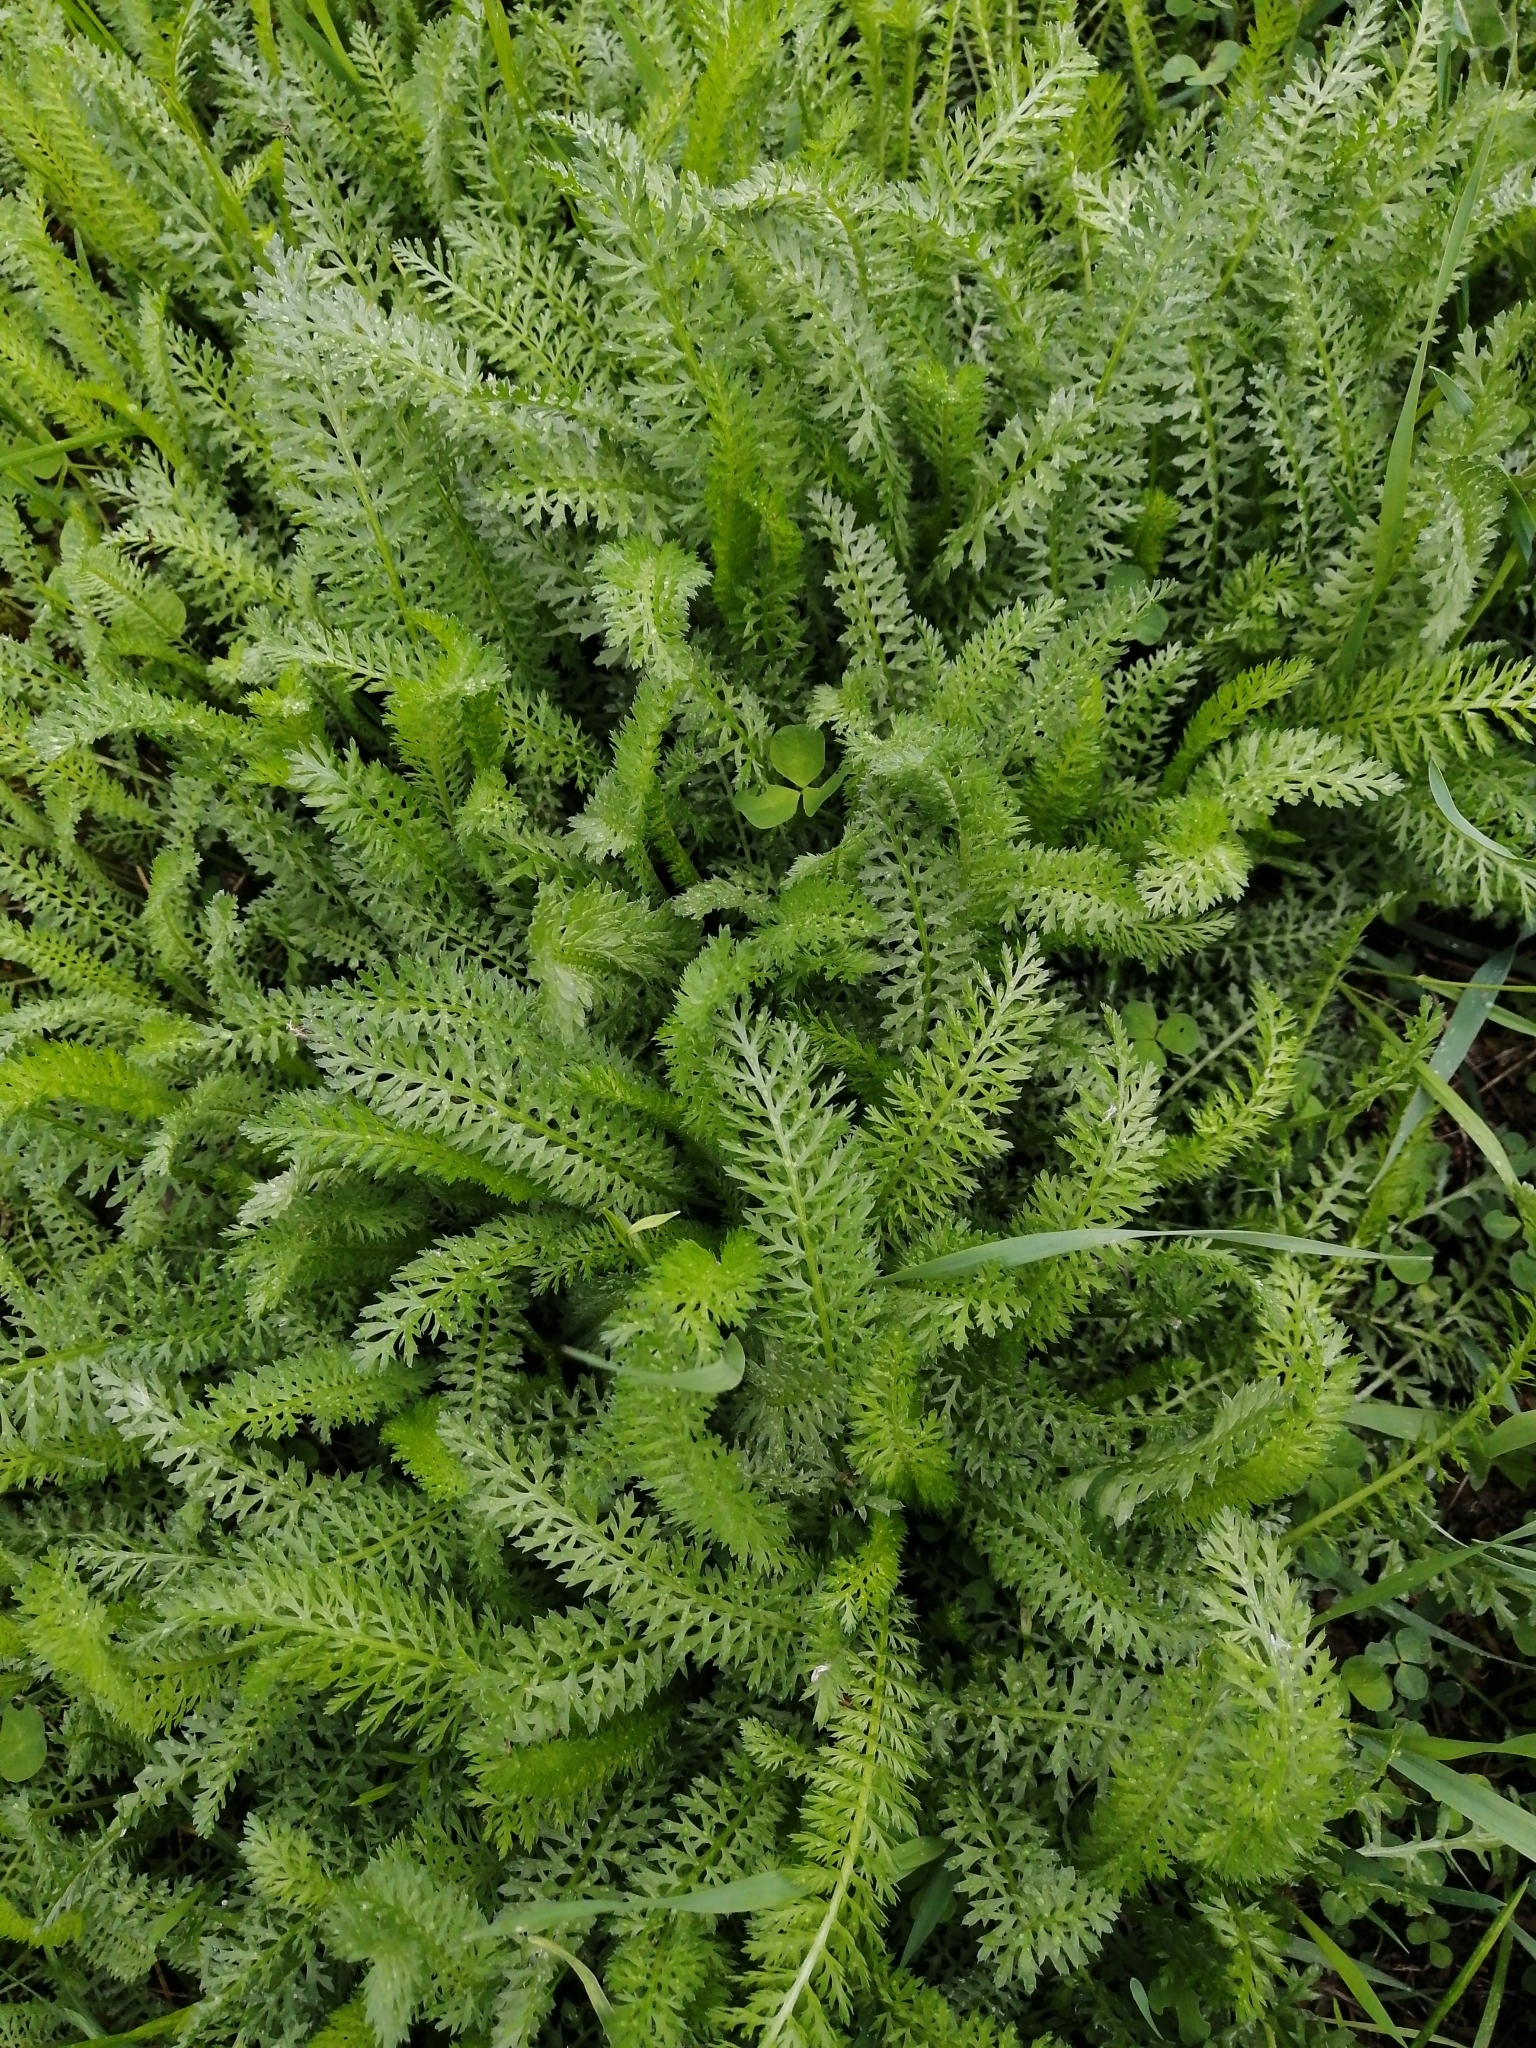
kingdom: Plantae
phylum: Tracheophyta
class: Magnoliopsida
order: Asterales
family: Asteraceae
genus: Achillea
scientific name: Achillea millefolium
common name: Yarrow
